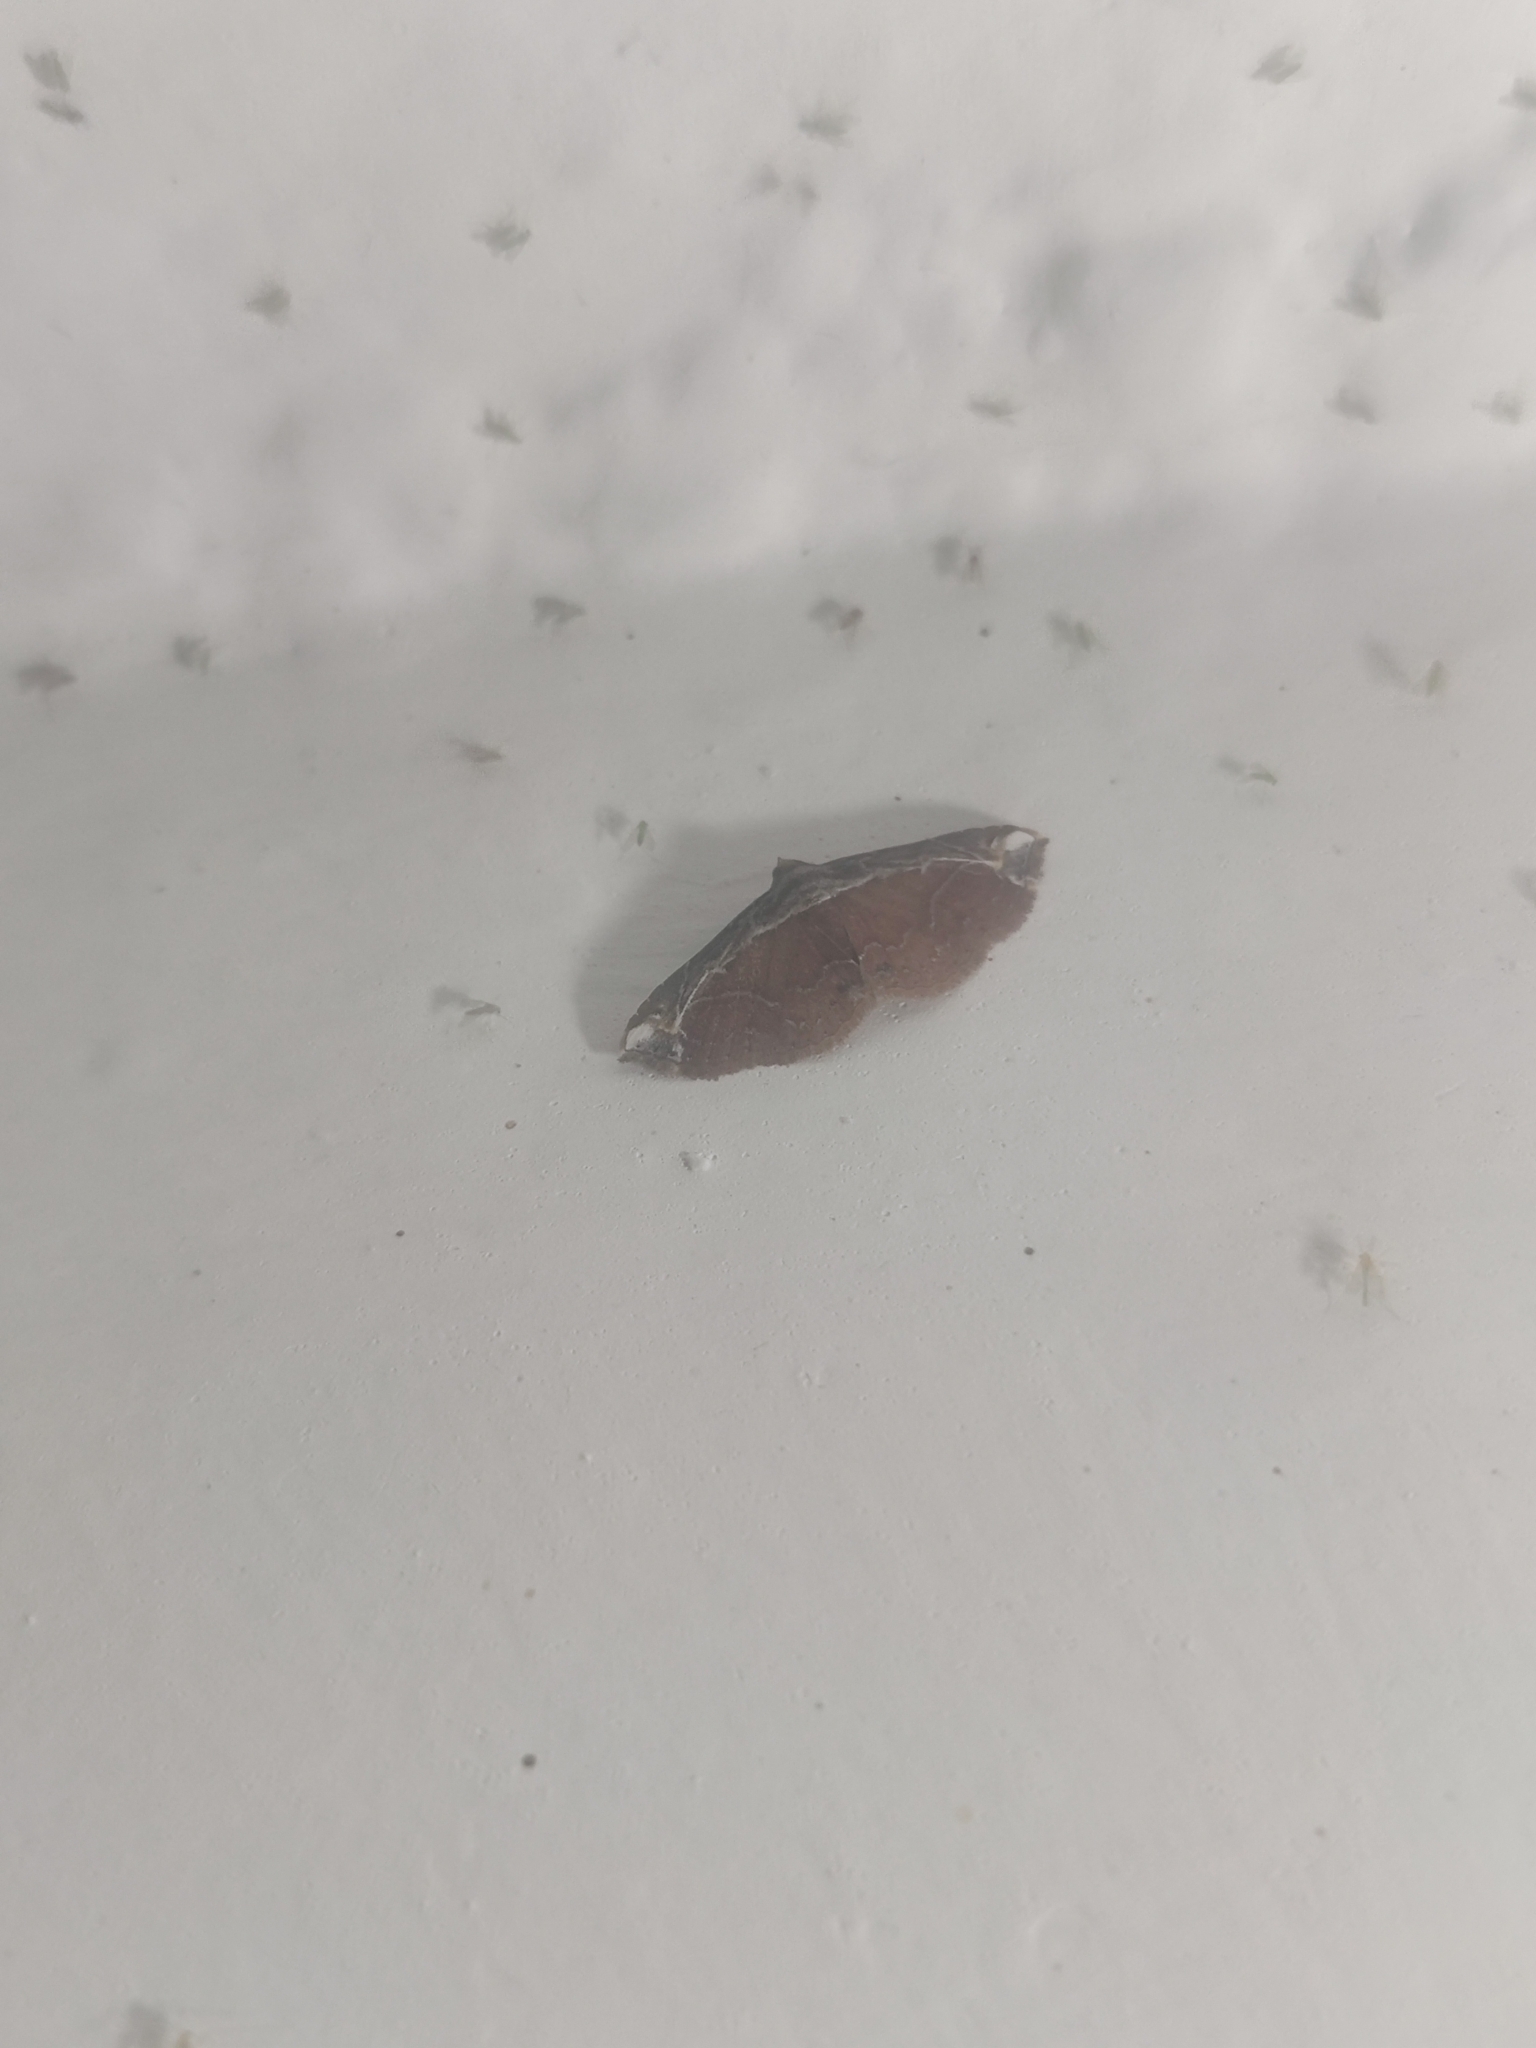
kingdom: Animalia
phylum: Arthropoda
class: Insecta
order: Lepidoptera
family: Erebidae
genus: Zurobata
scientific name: Zurobata vacillans
